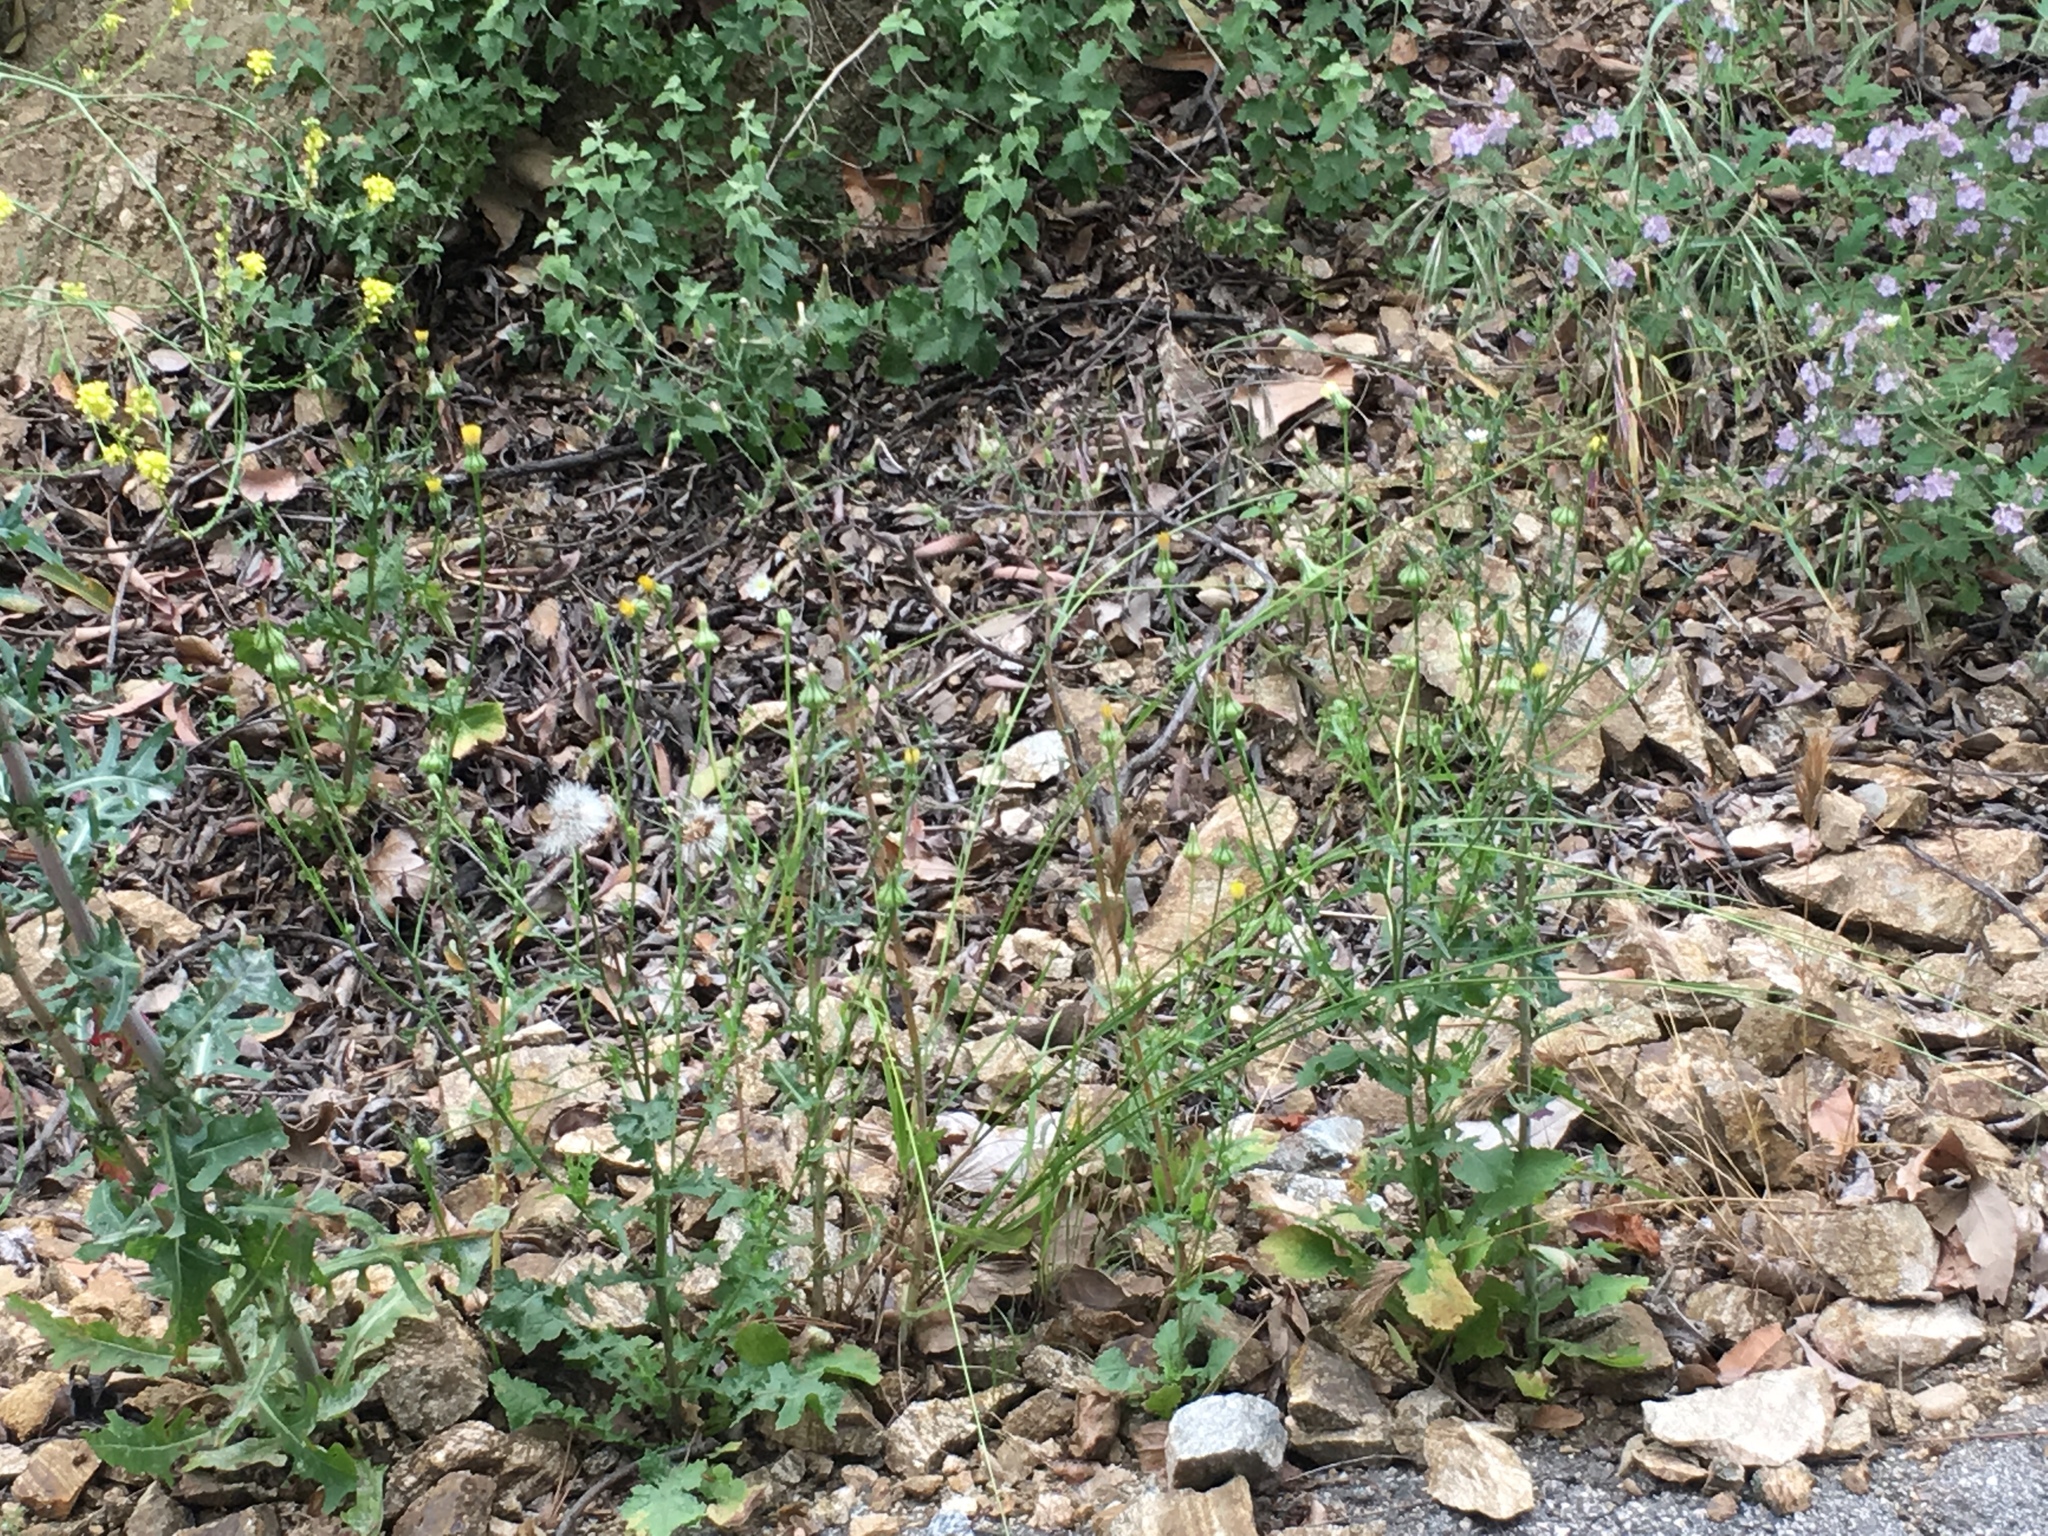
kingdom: Plantae
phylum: Tracheophyta
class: Magnoliopsida
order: Asterales
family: Asteraceae
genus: Urospermum
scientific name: Urospermum picroides
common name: False hawkbit
